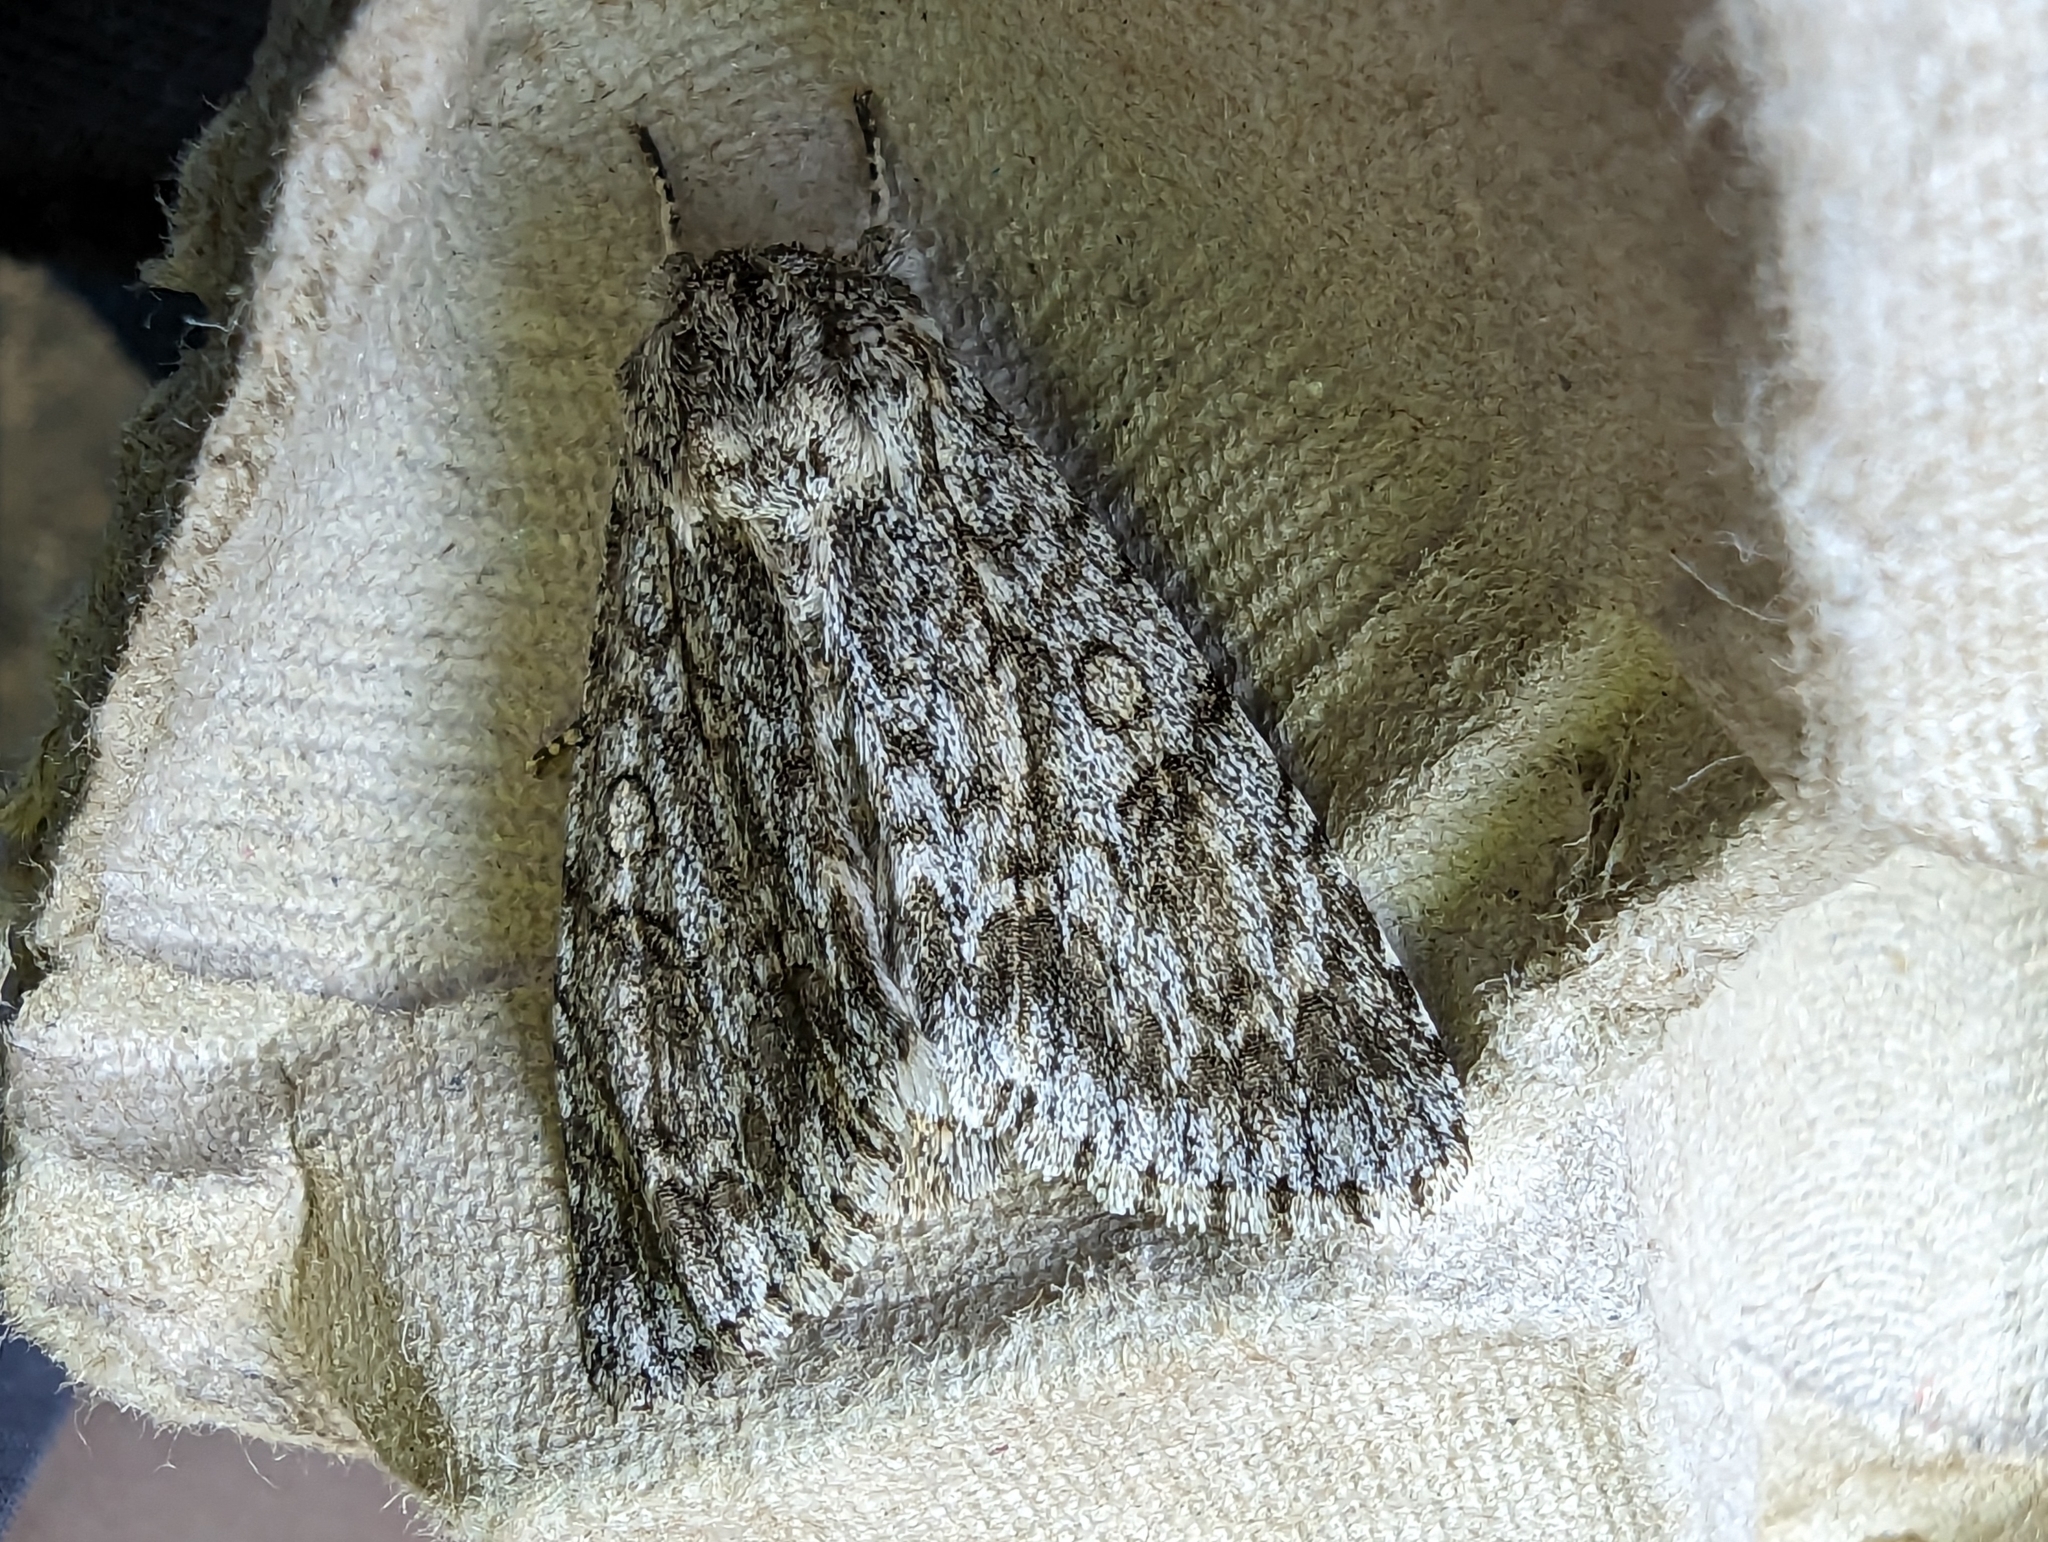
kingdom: Animalia
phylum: Arthropoda
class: Insecta
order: Lepidoptera
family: Noctuidae
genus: Acronicta
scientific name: Acronicta aceris
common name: Sycamore
